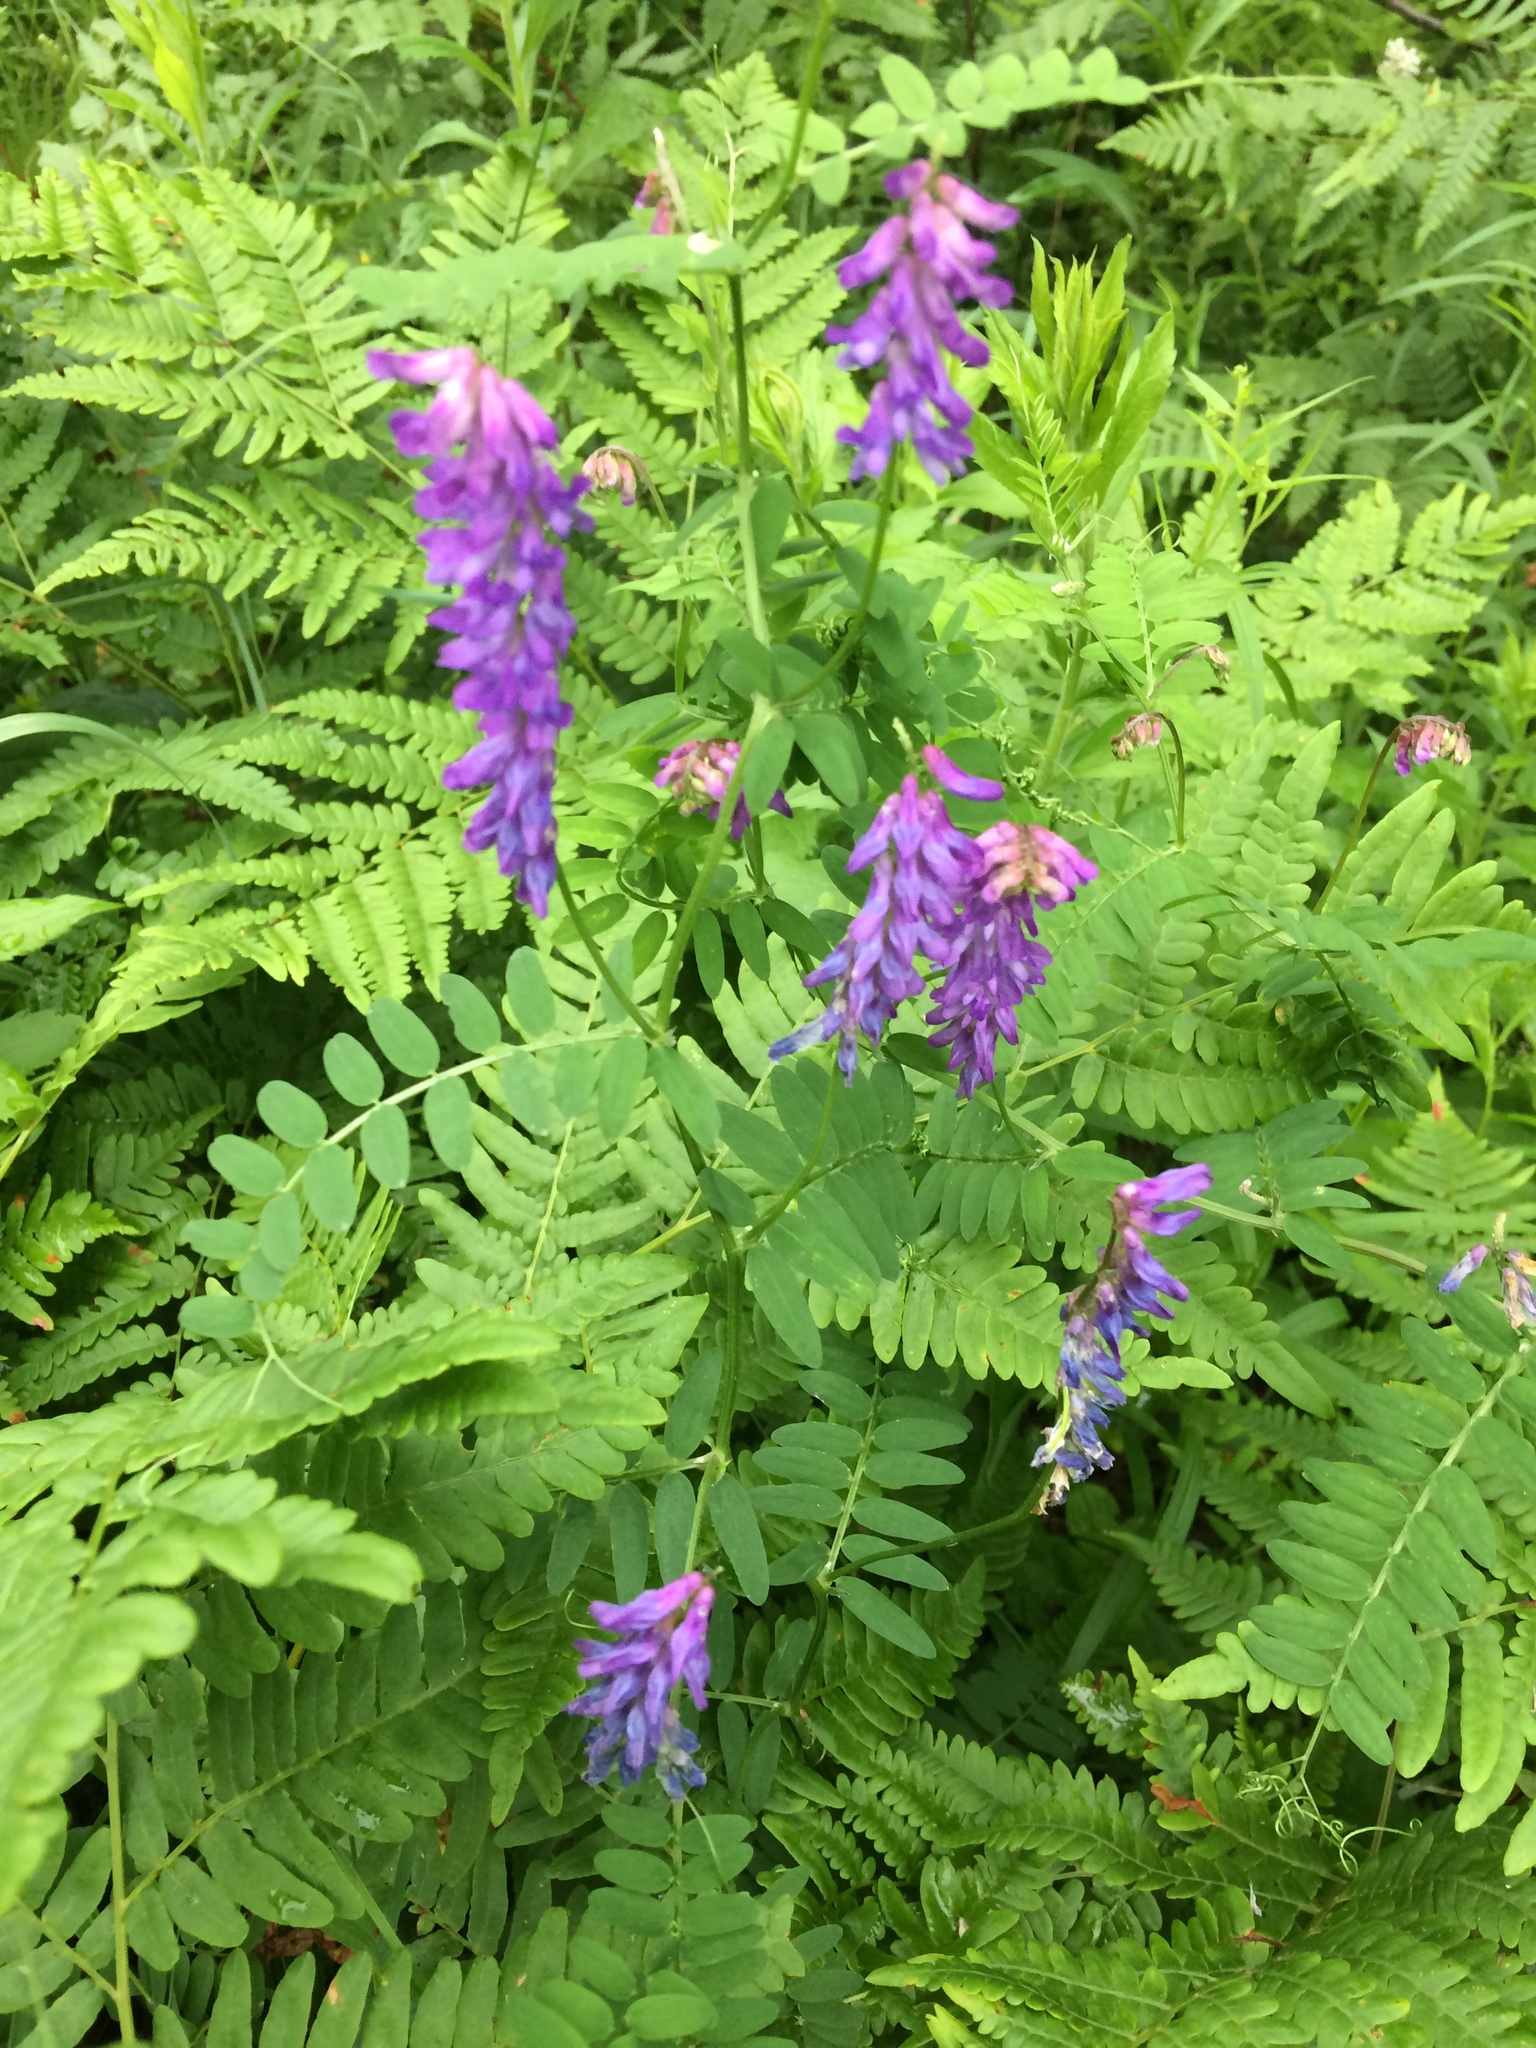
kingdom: Plantae
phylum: Tracheophyta
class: Magnoliopsida
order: Fabales
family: Fabaceae
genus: Vicia
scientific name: Vicia cracca
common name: Bird vetch
